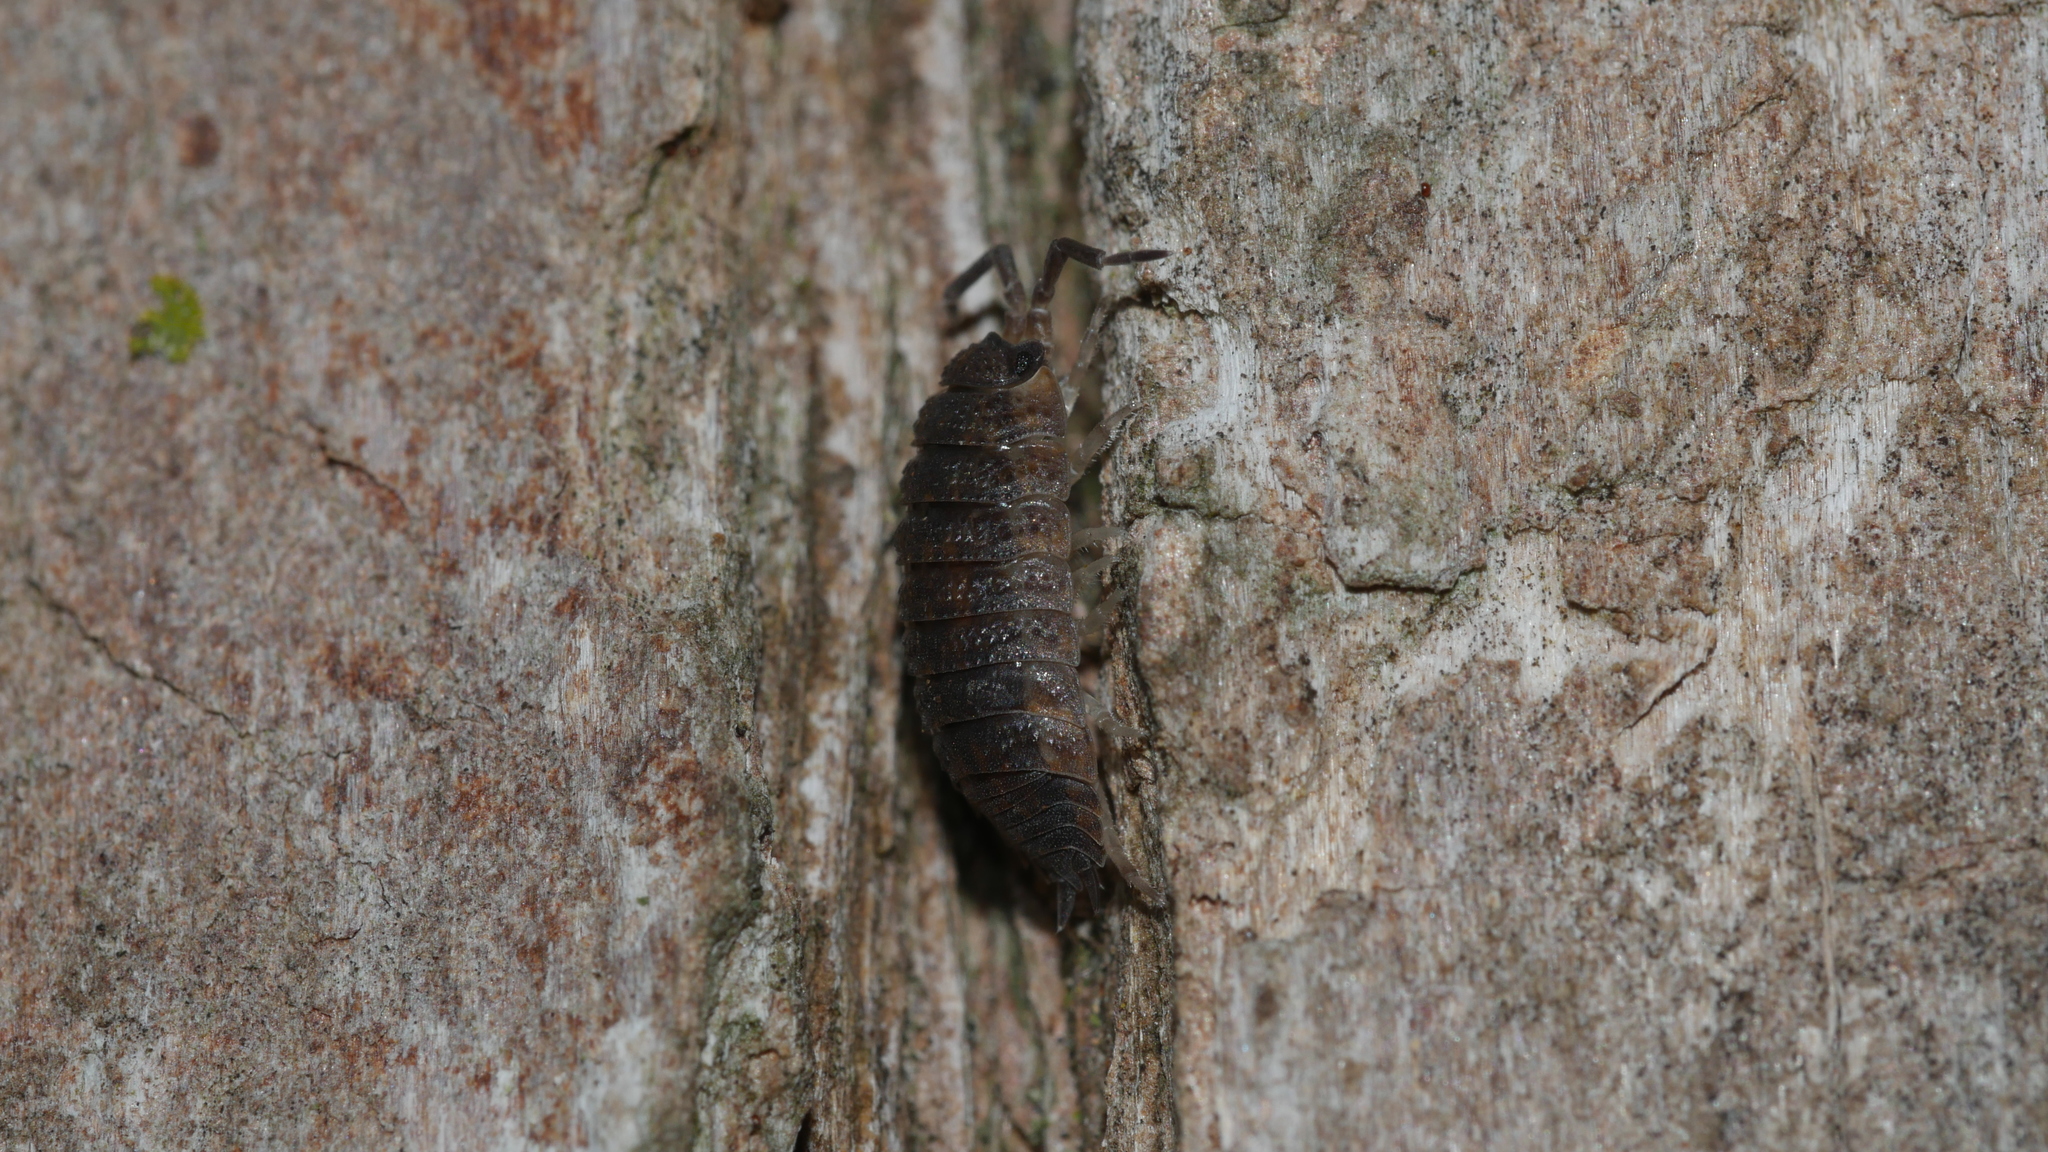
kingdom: Animalia
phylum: Arthropoda
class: Malacostraca
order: Isopoda
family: Porcellionidae
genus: Porcellio
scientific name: Porcellio scaber
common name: Common rough woodlouse
